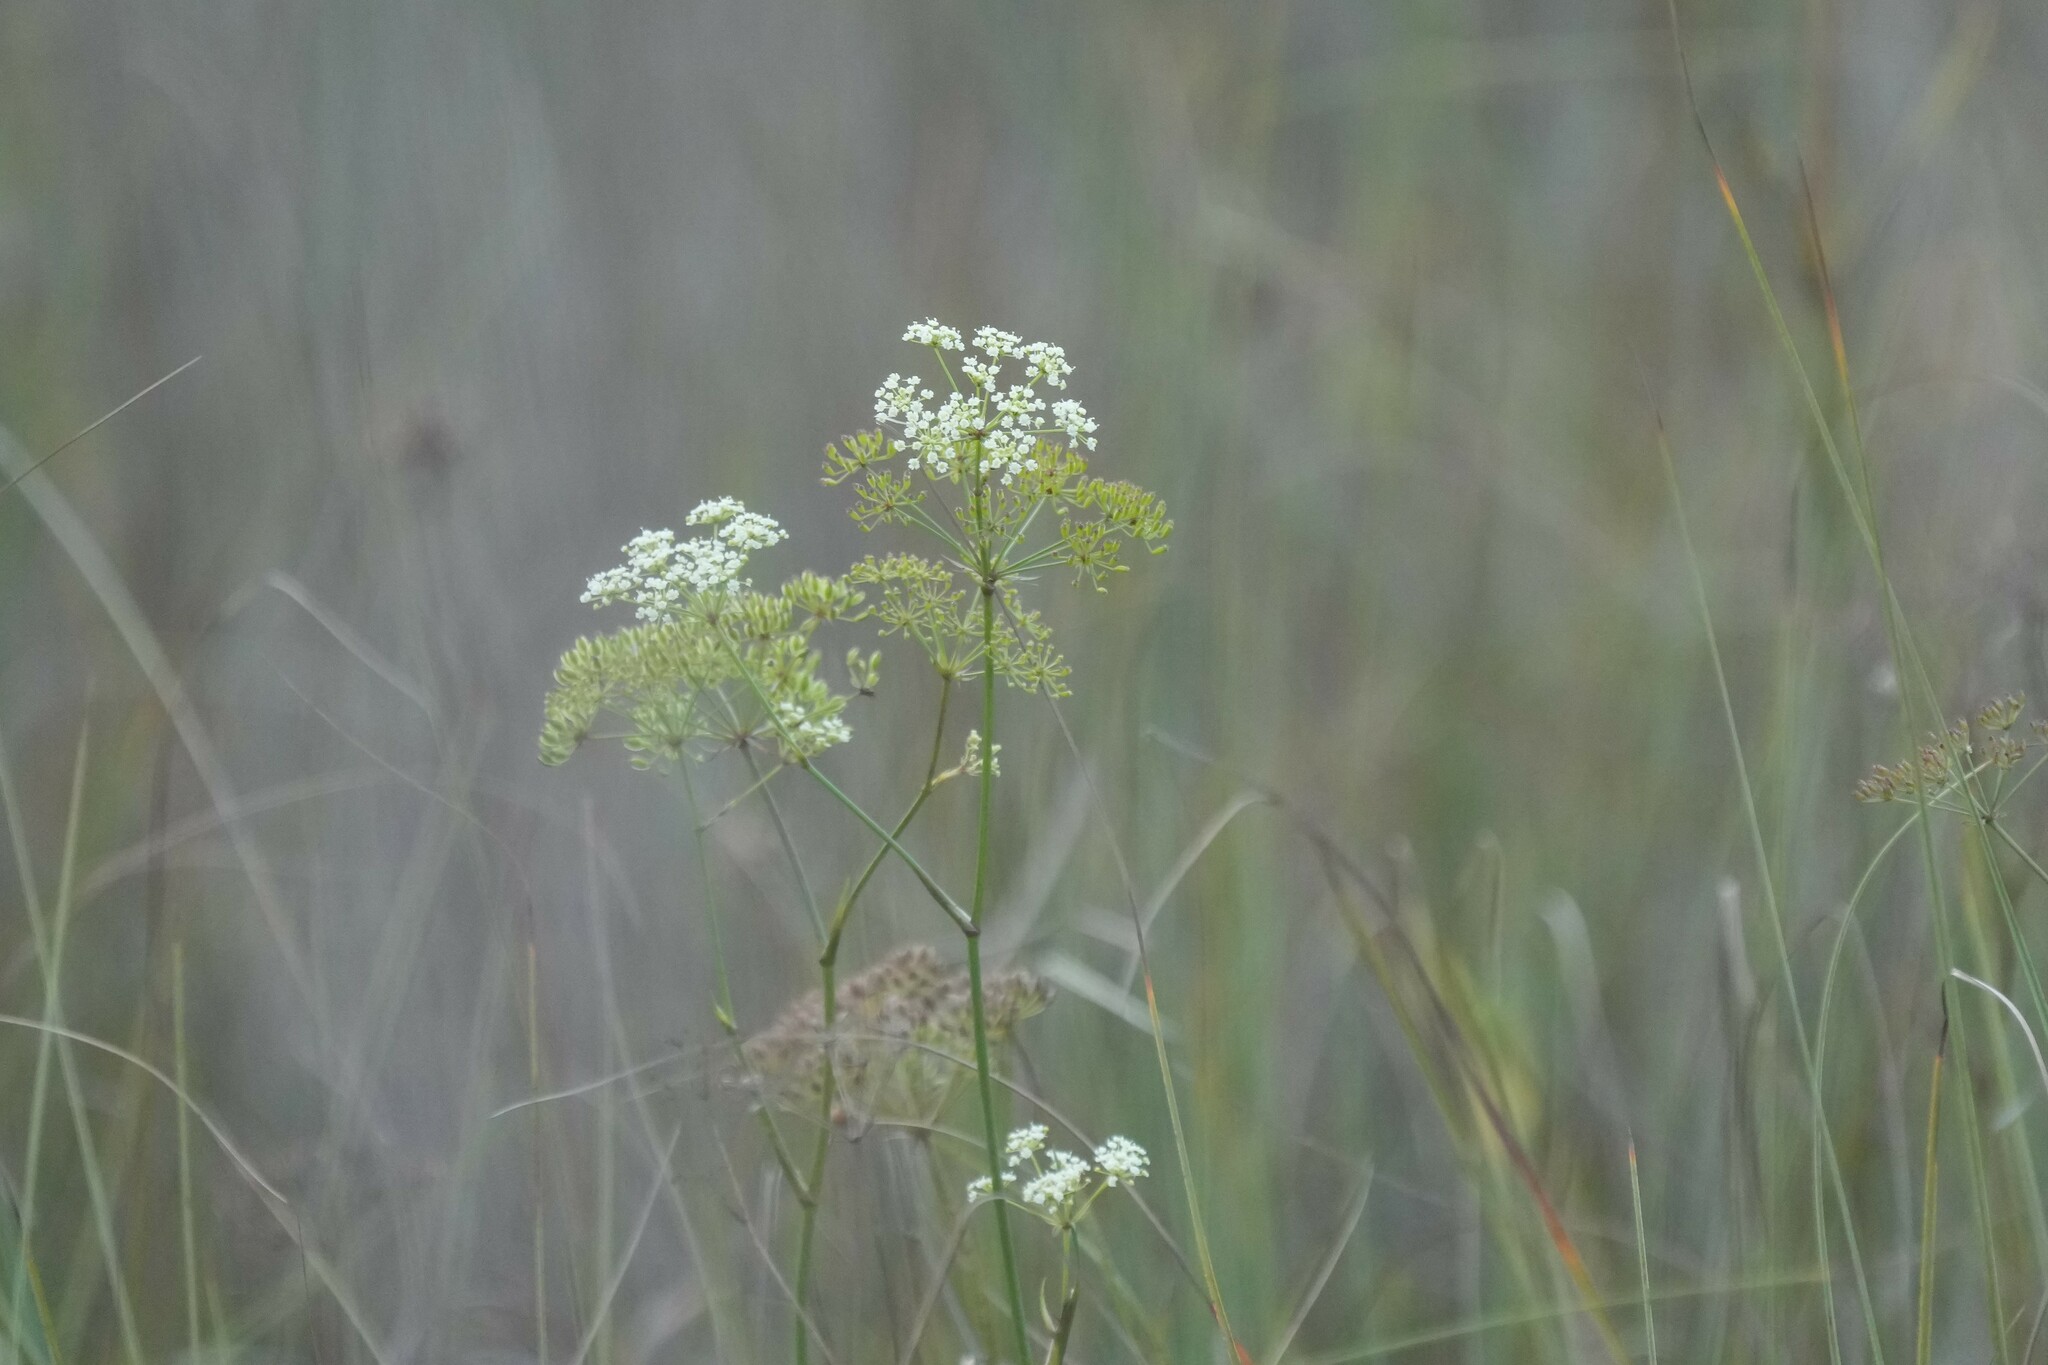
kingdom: Plantae
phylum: Tracheophyta
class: Magnoliopsida
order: Apiales
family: Apiaceae
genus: Tiedemannia
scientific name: Tiedemannia filiformis
